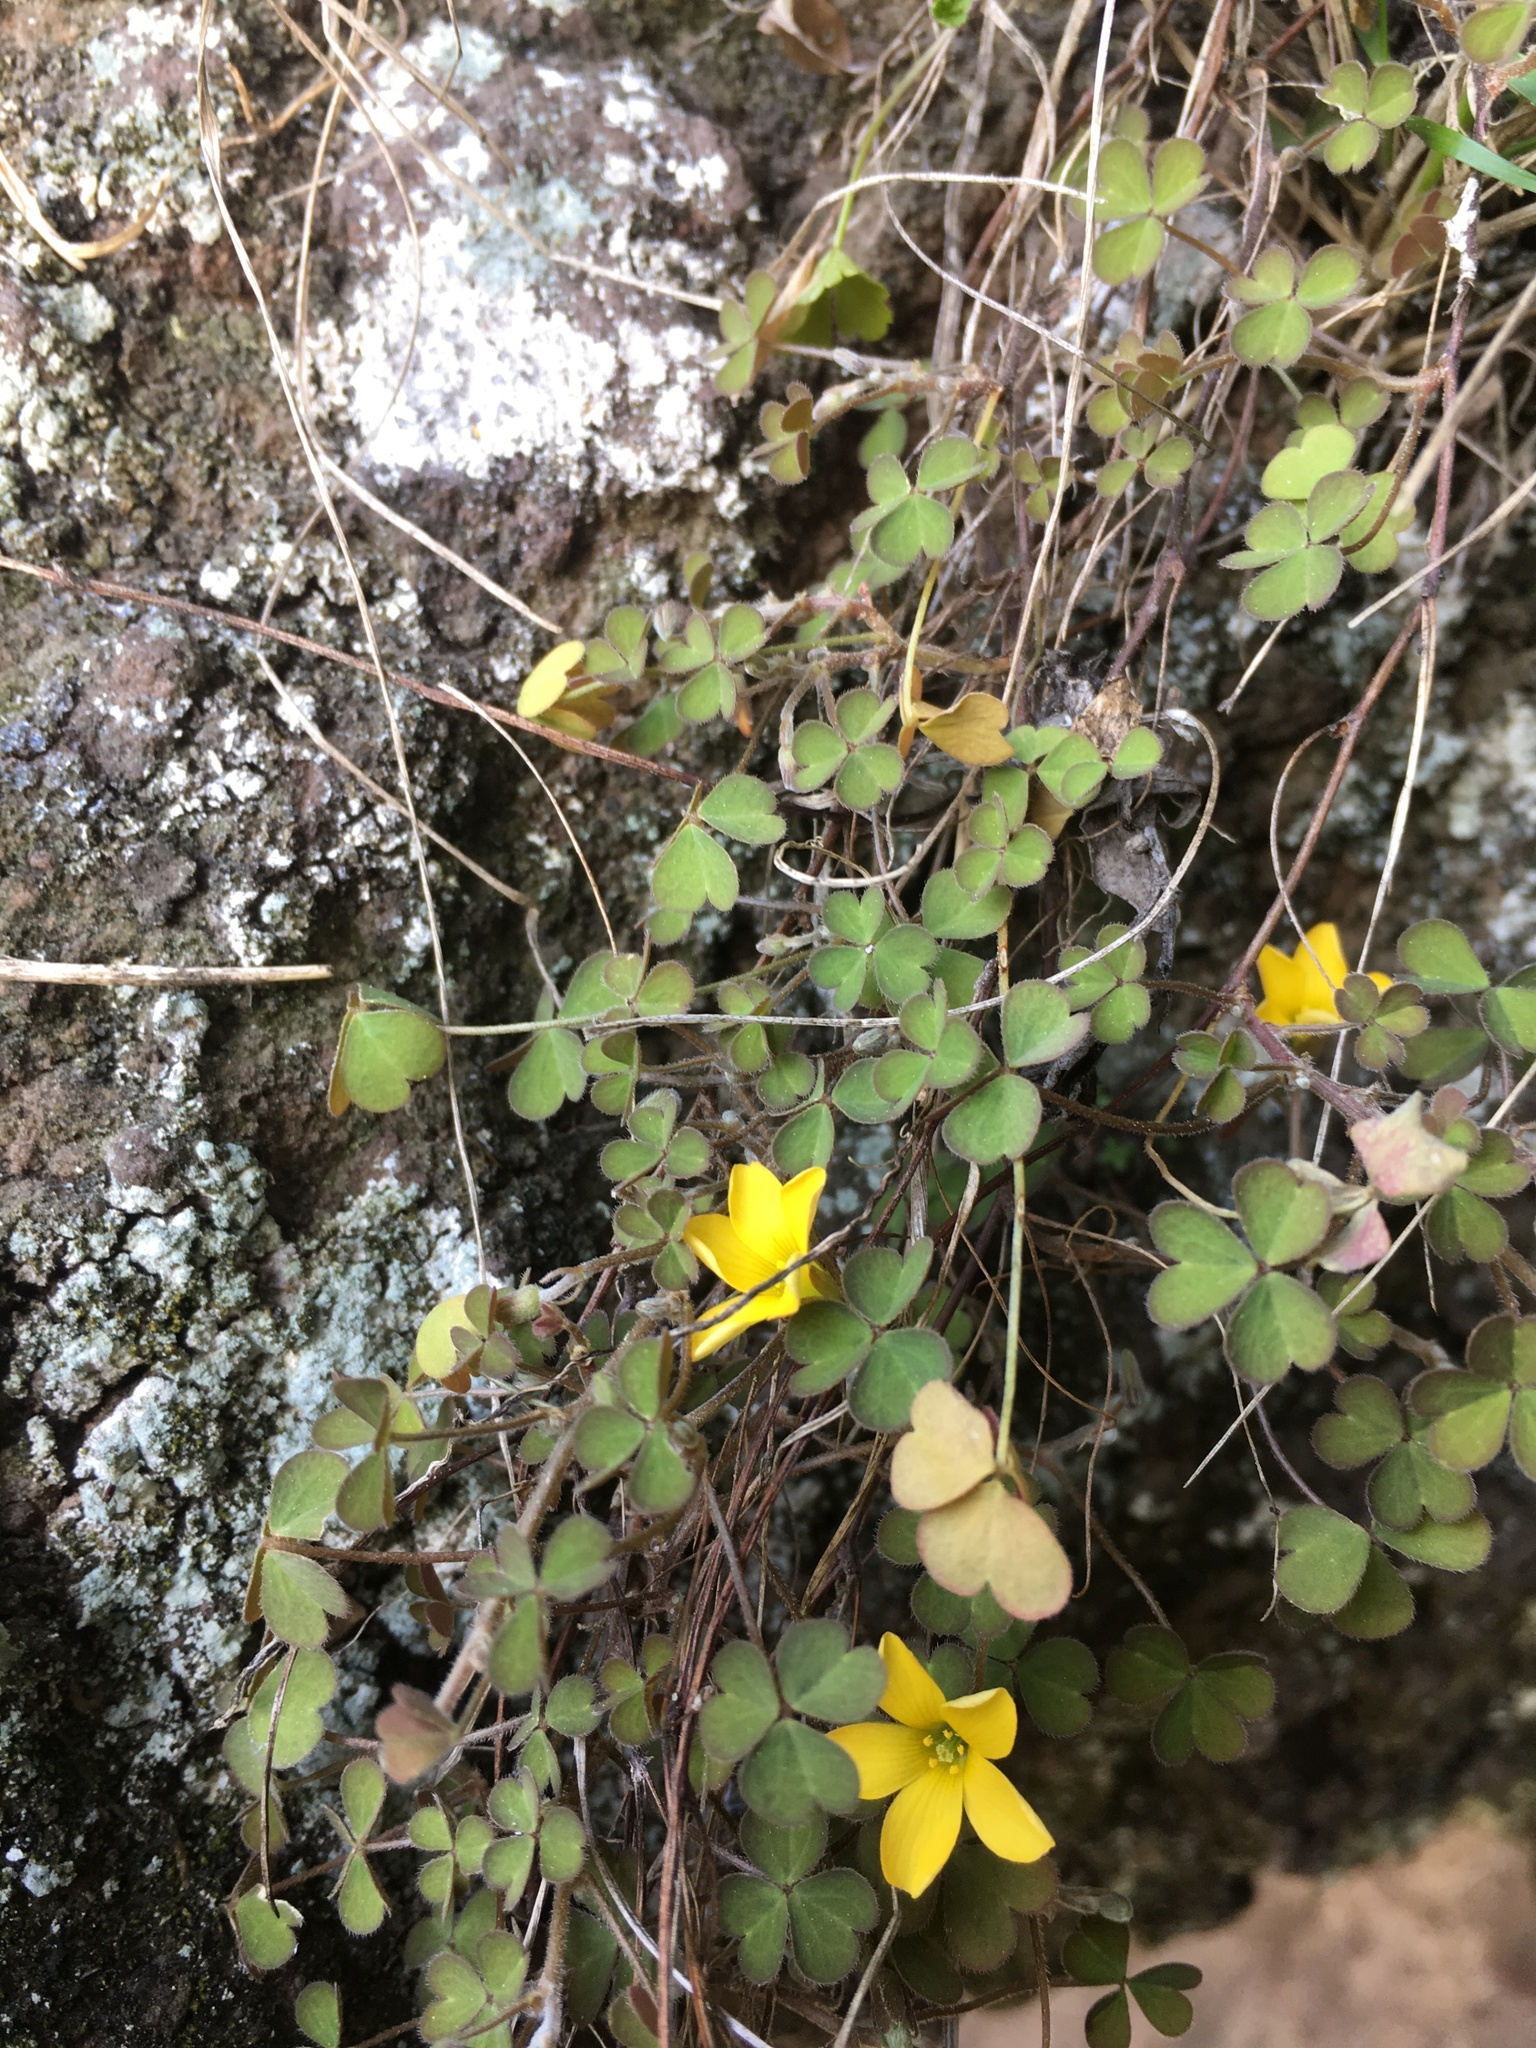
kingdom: Plantae
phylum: Tracheophyta
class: Magnoliopsida
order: Oxalidales
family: Oxalidaceae
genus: Oxalis
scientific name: Oxalis exilis
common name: Least yellow-sorrel
